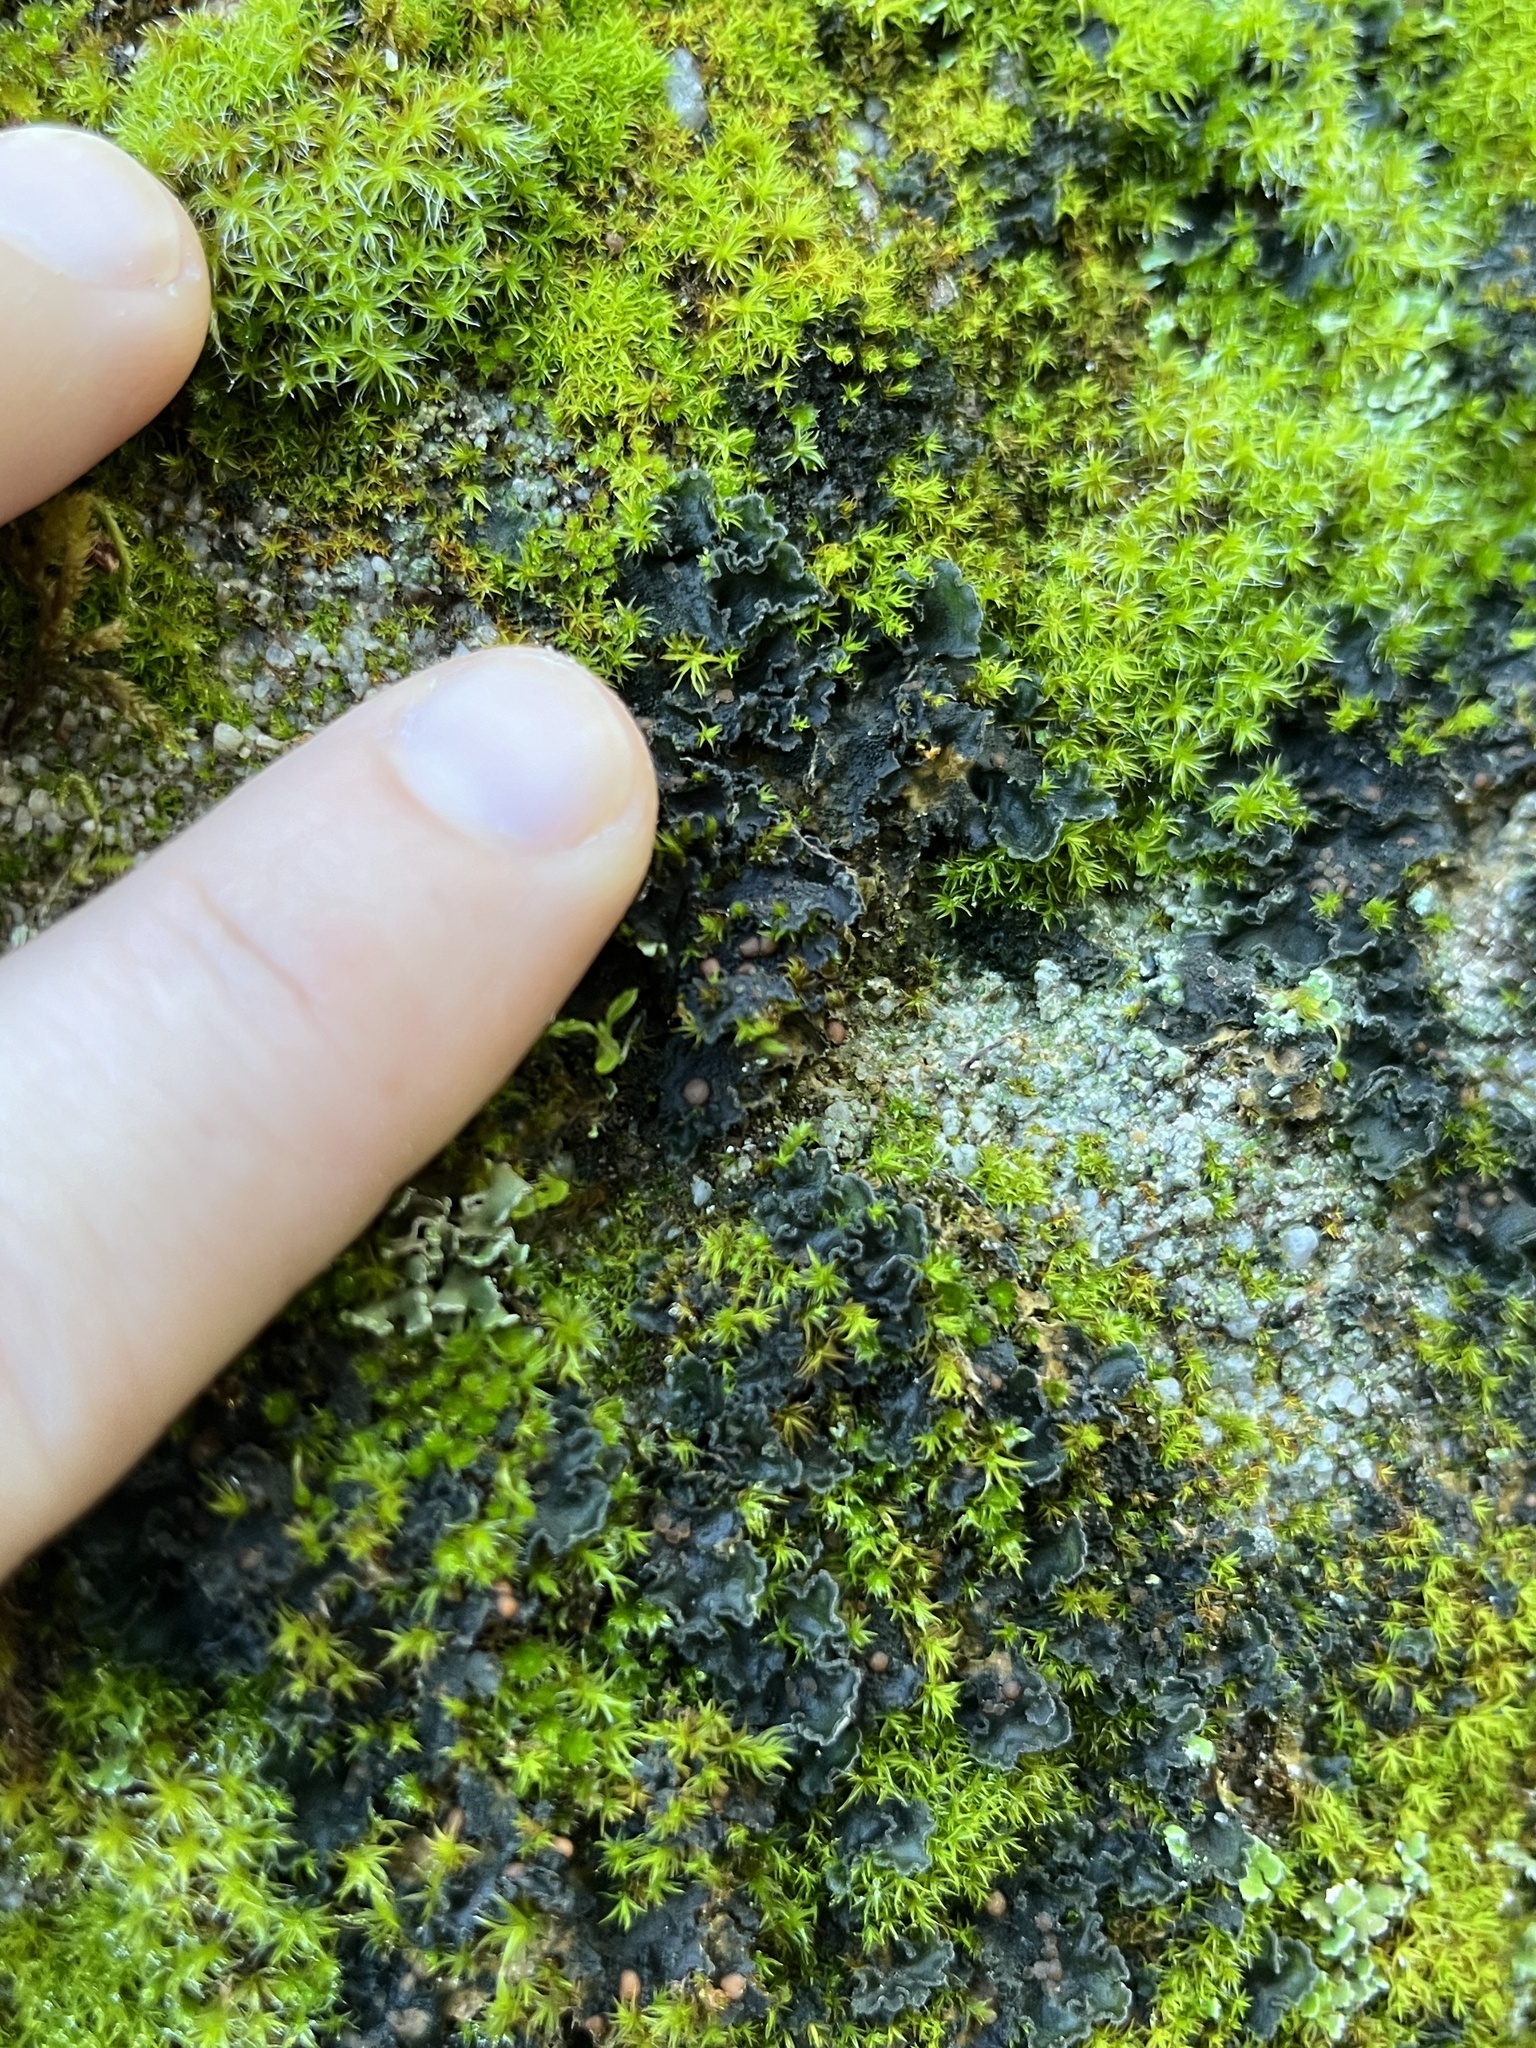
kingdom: Fungi
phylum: Ascomycota
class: Lecanoromycetes
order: Peltigerales
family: Massalongiaceae
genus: Leptochidium
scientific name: Leptochidium albociliatum
